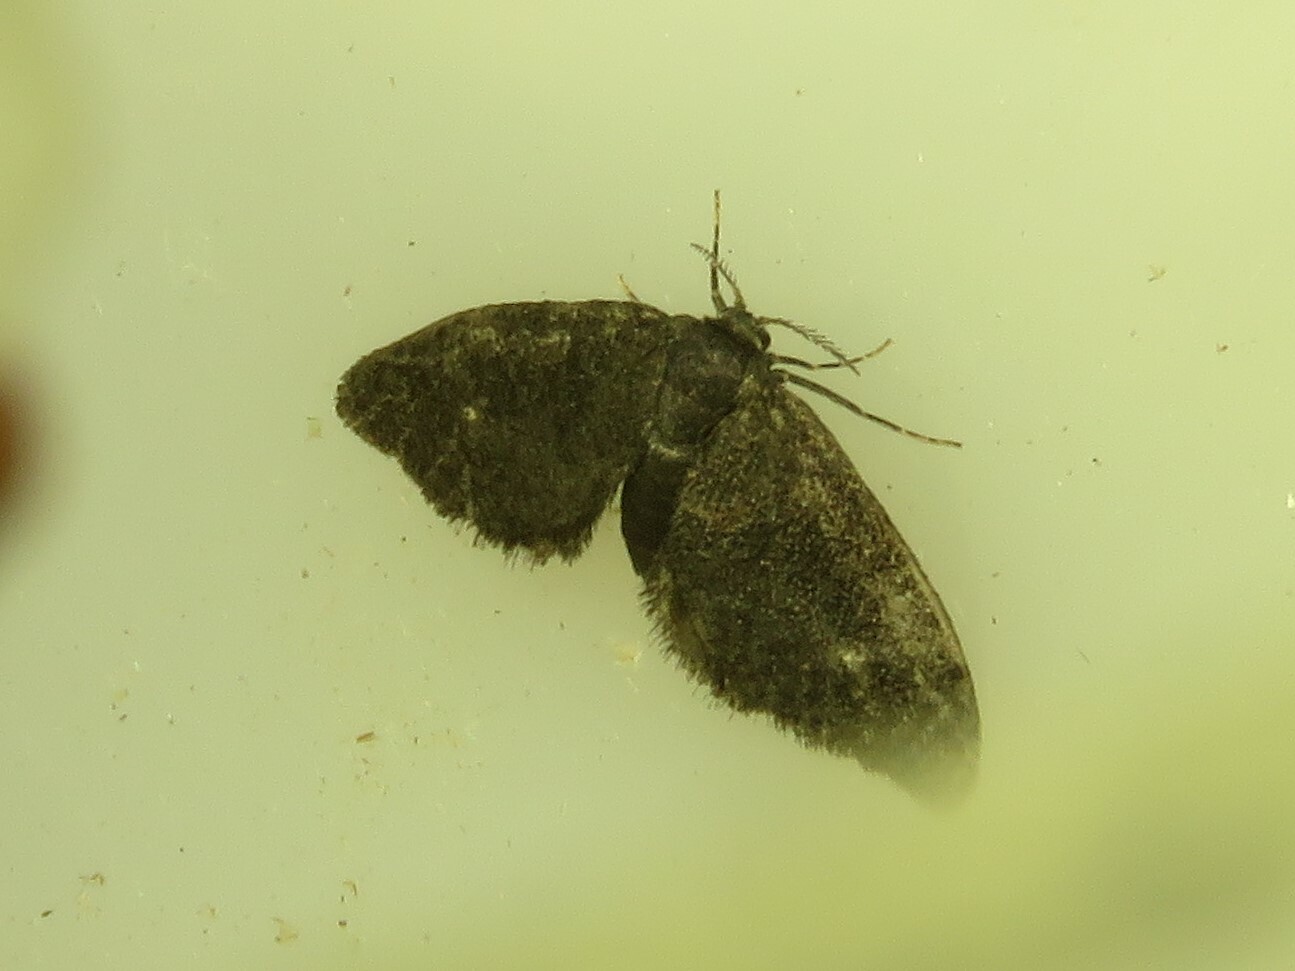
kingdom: Animalia
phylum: Arthropoda
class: Insecta
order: Lepidoptera
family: Epipyropidae
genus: Fulgoraecia
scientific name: Fulgoraecia exigua
